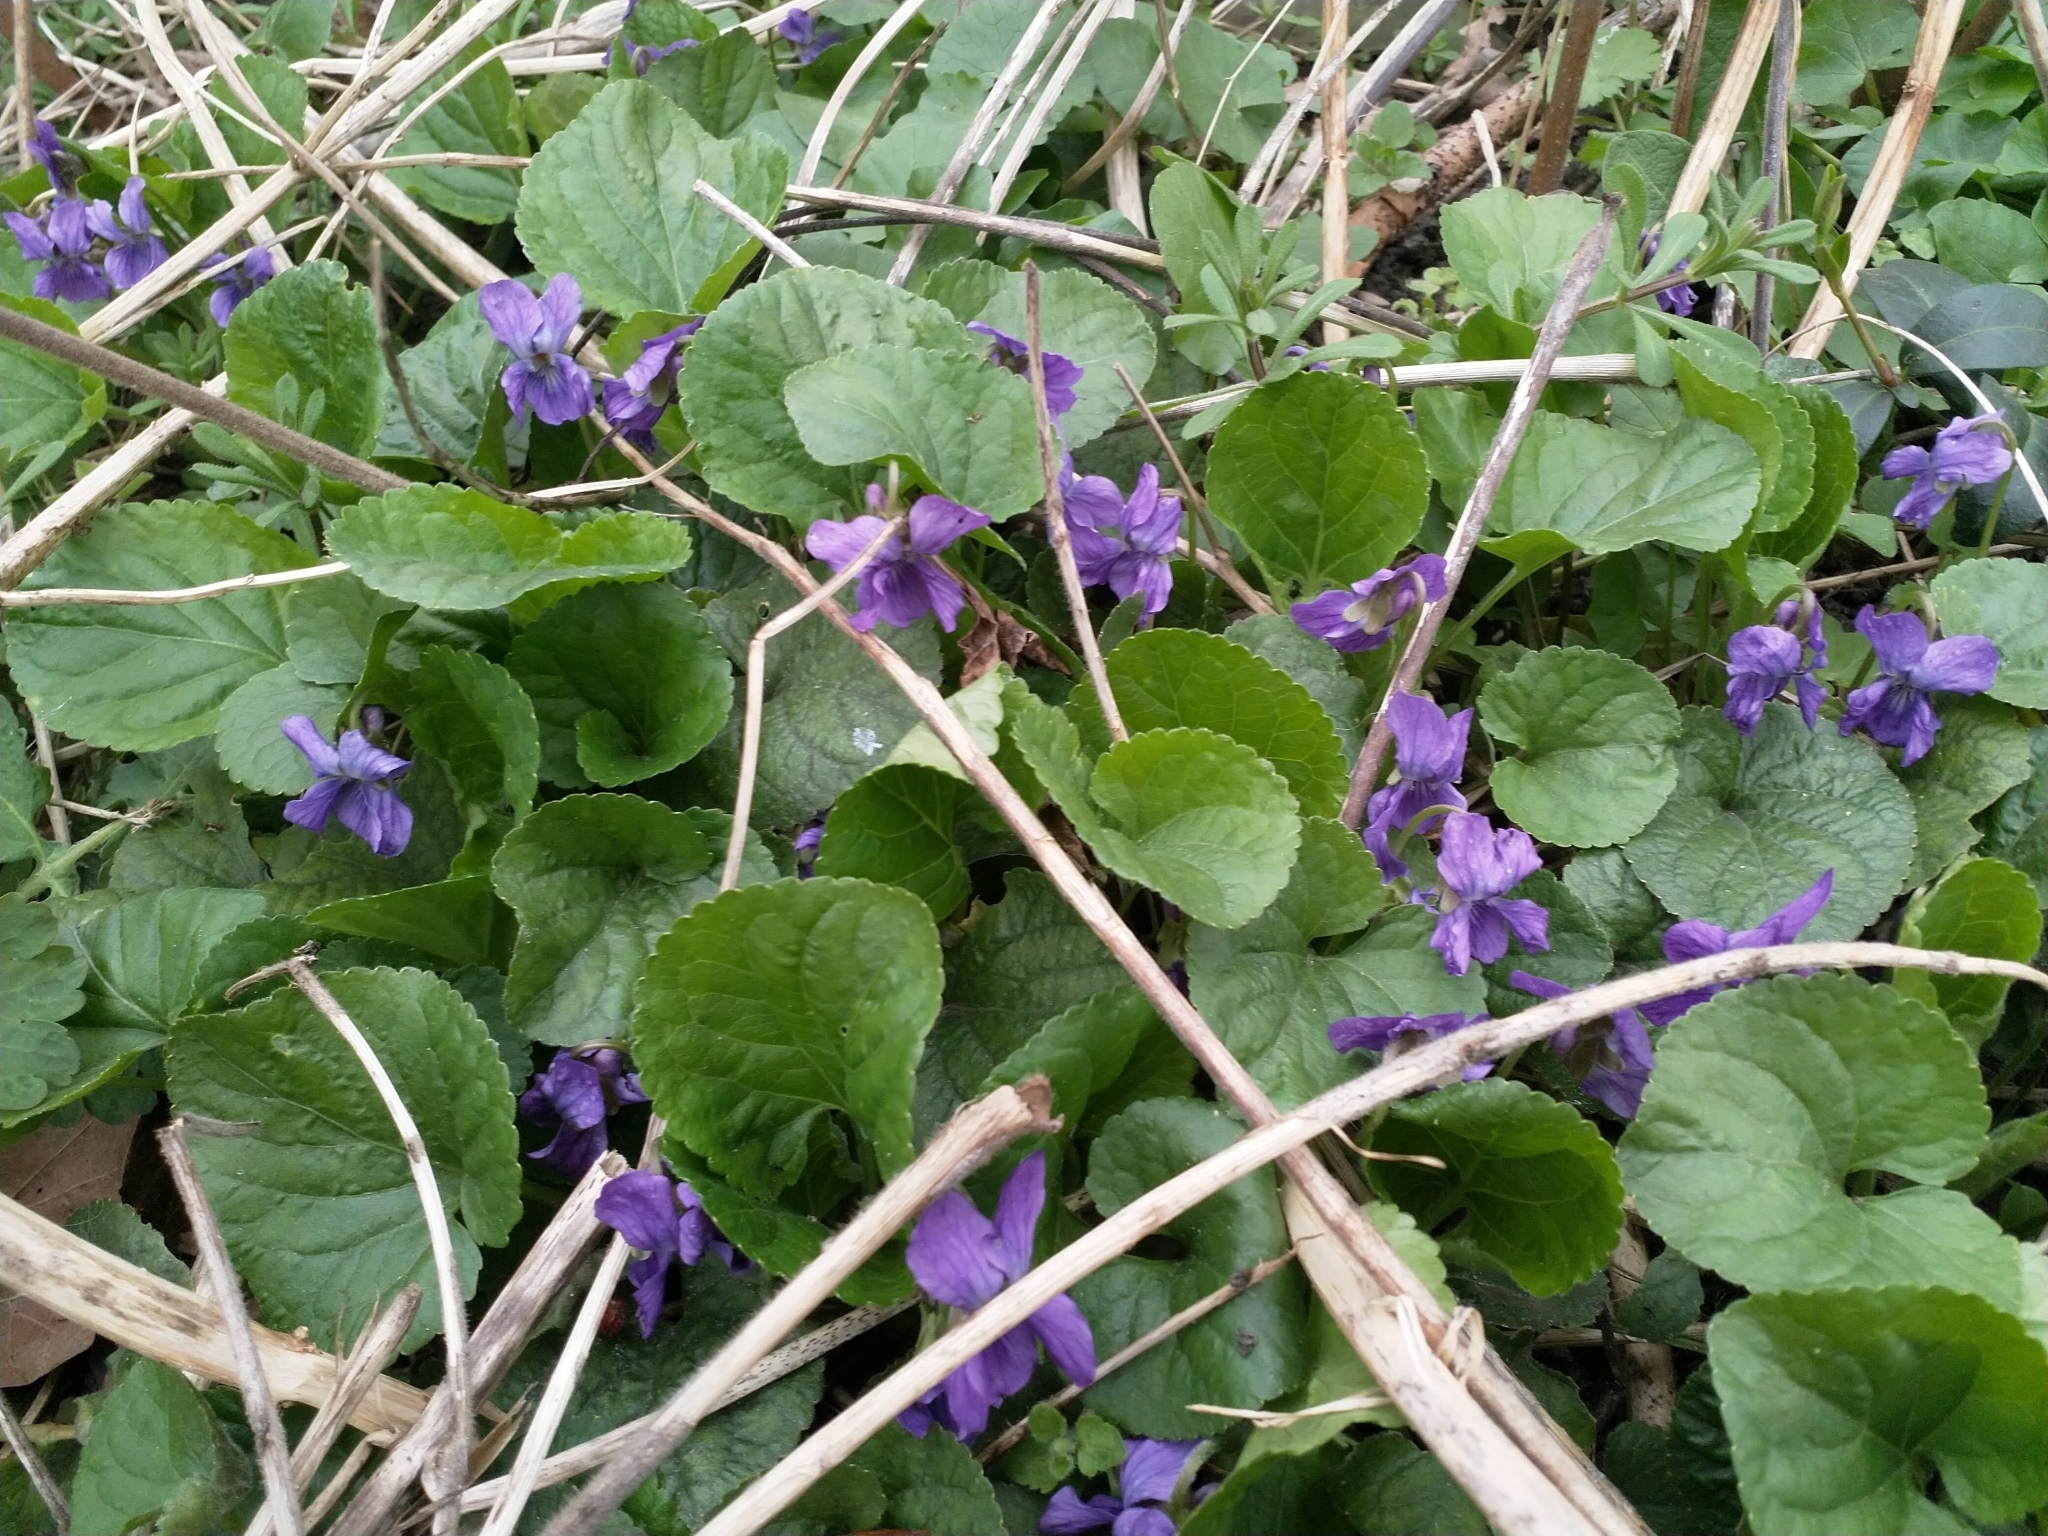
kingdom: Plantae
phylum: Tracheophyta
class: Magnoliopsida
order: Malpighiales
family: Violaceae
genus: Viola
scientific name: Viola odorata
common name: Sweet violet
